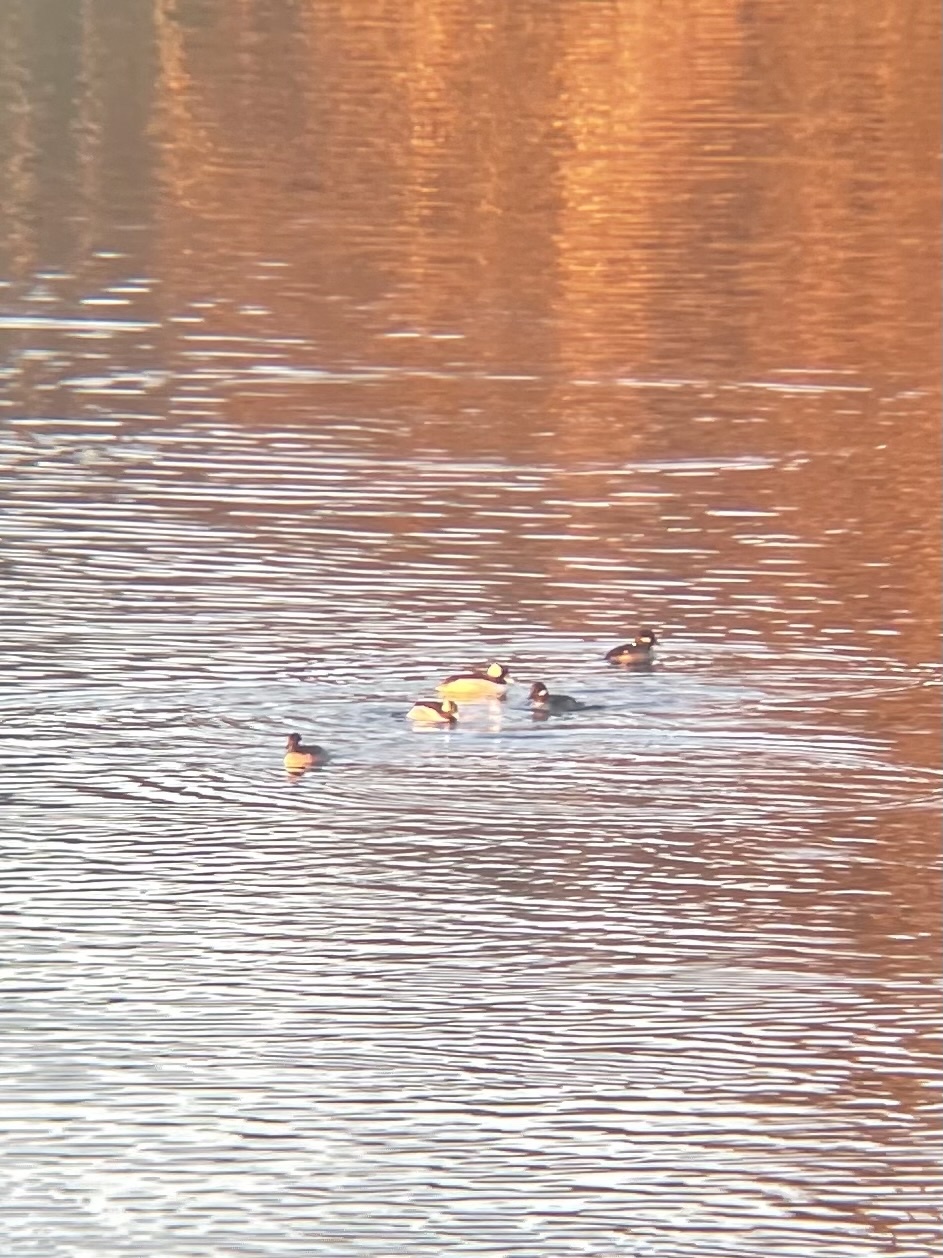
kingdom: Animalia
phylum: Chordata
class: Aves
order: Anseriformes
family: Anatidae
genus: Bucephala
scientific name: Bucephala albeola
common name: Bufflehead
